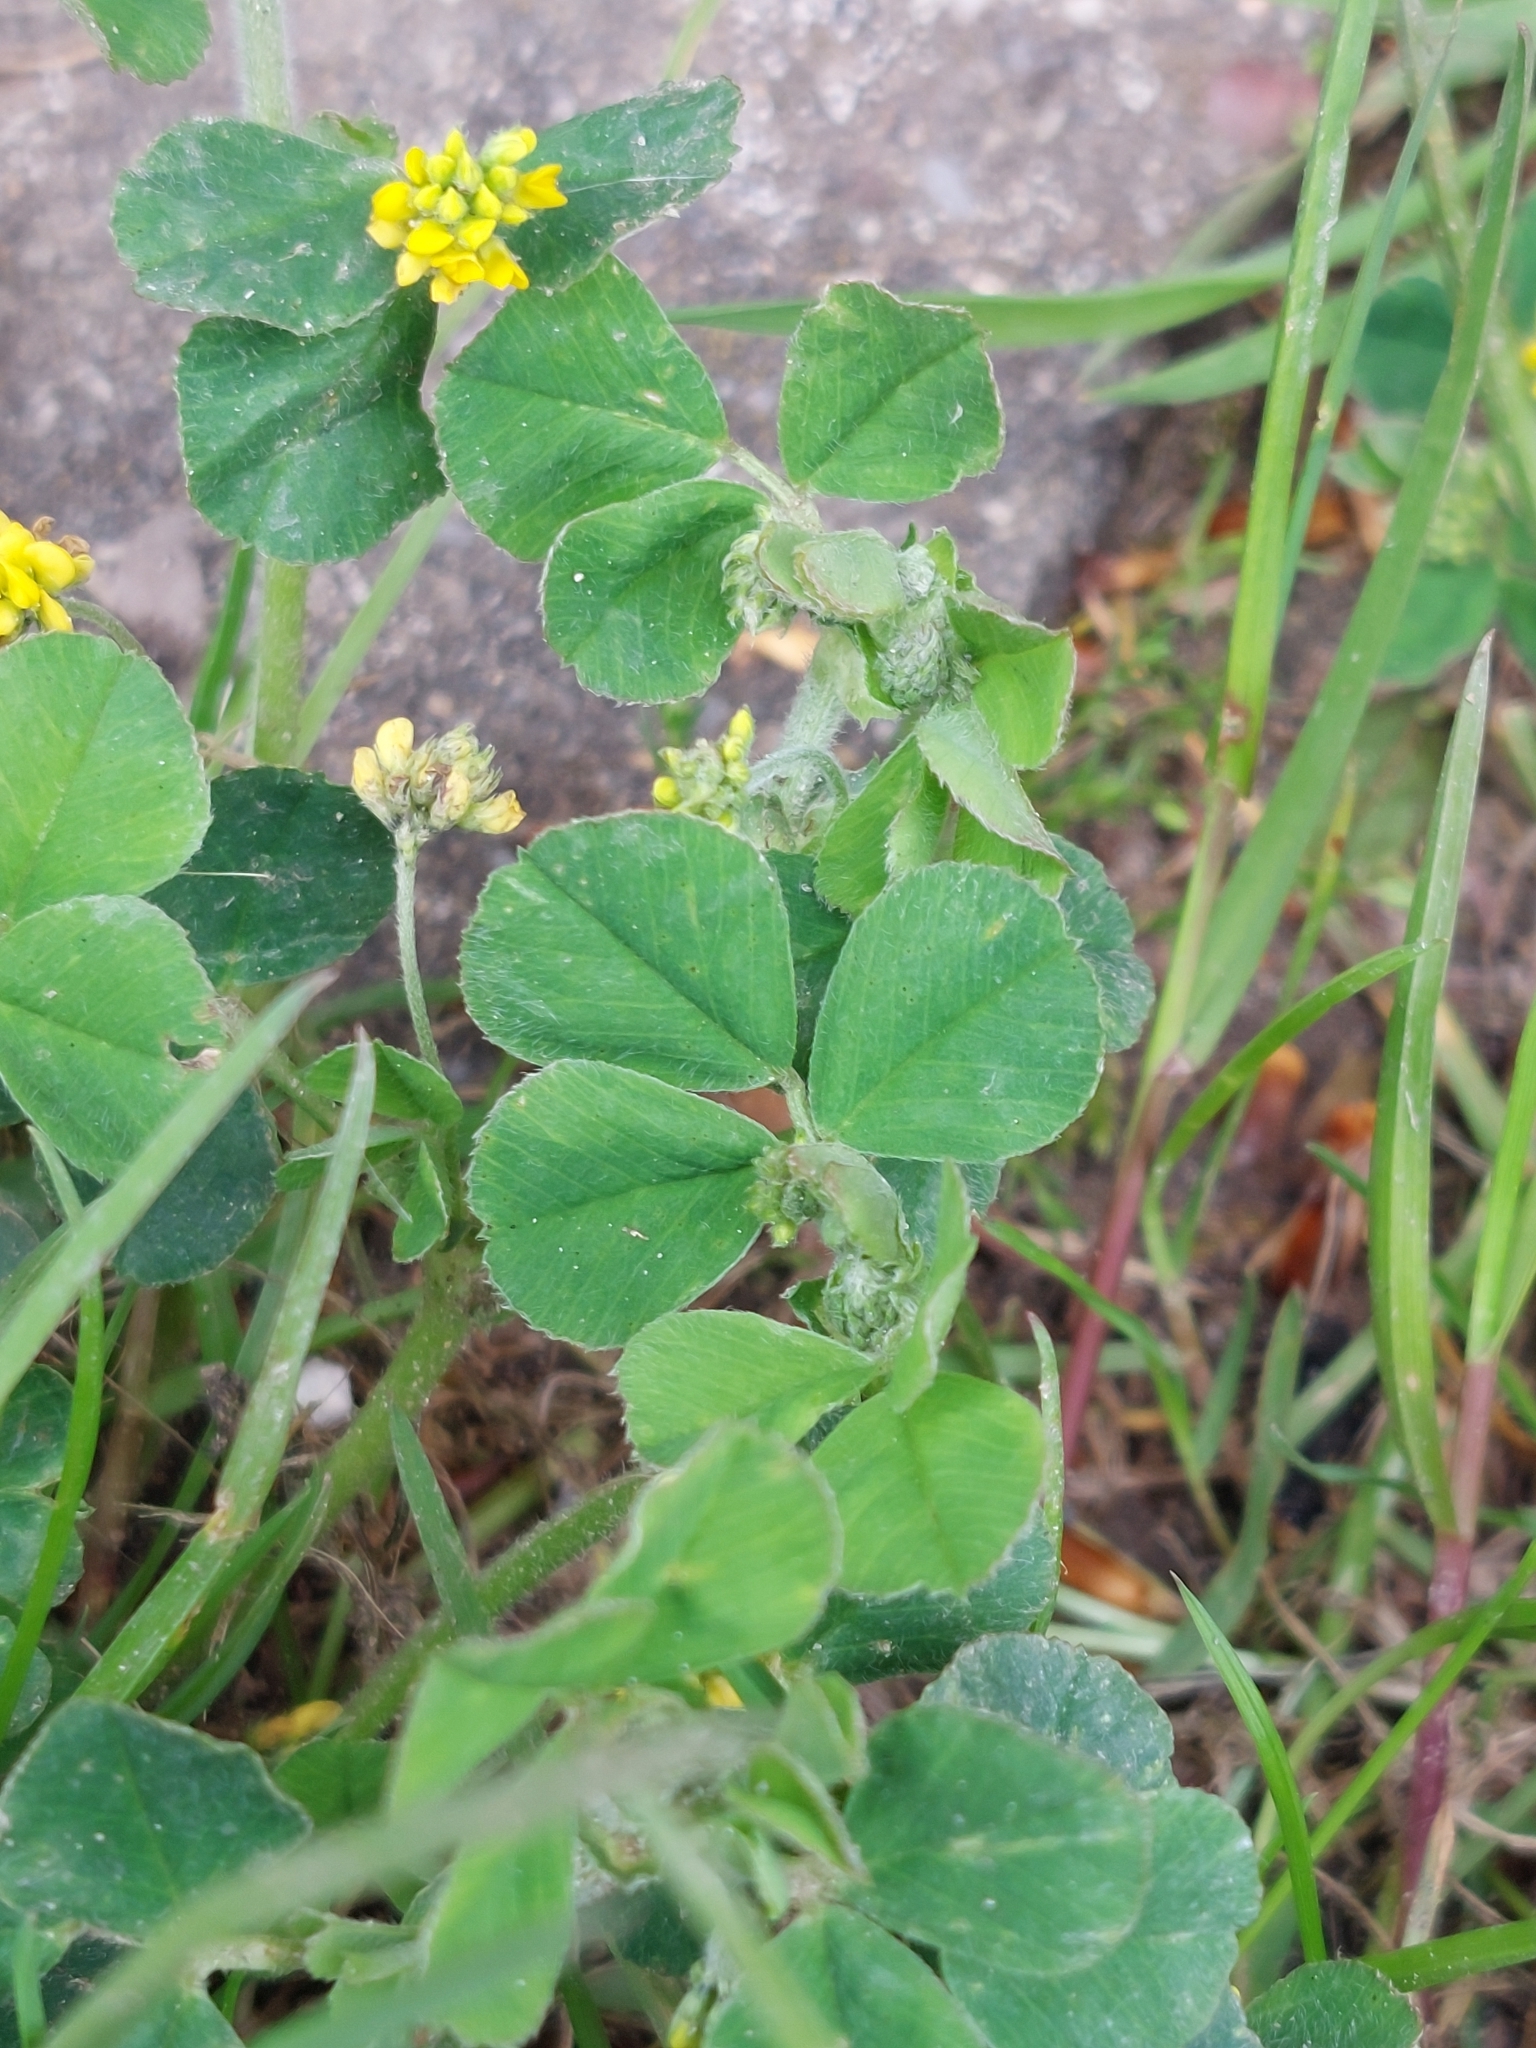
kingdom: Plantae
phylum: Tracheophyta
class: Magnoliopsida
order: Fabales
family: Fabaceae
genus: Medicago
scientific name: Medicago lupulina
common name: Black medick
